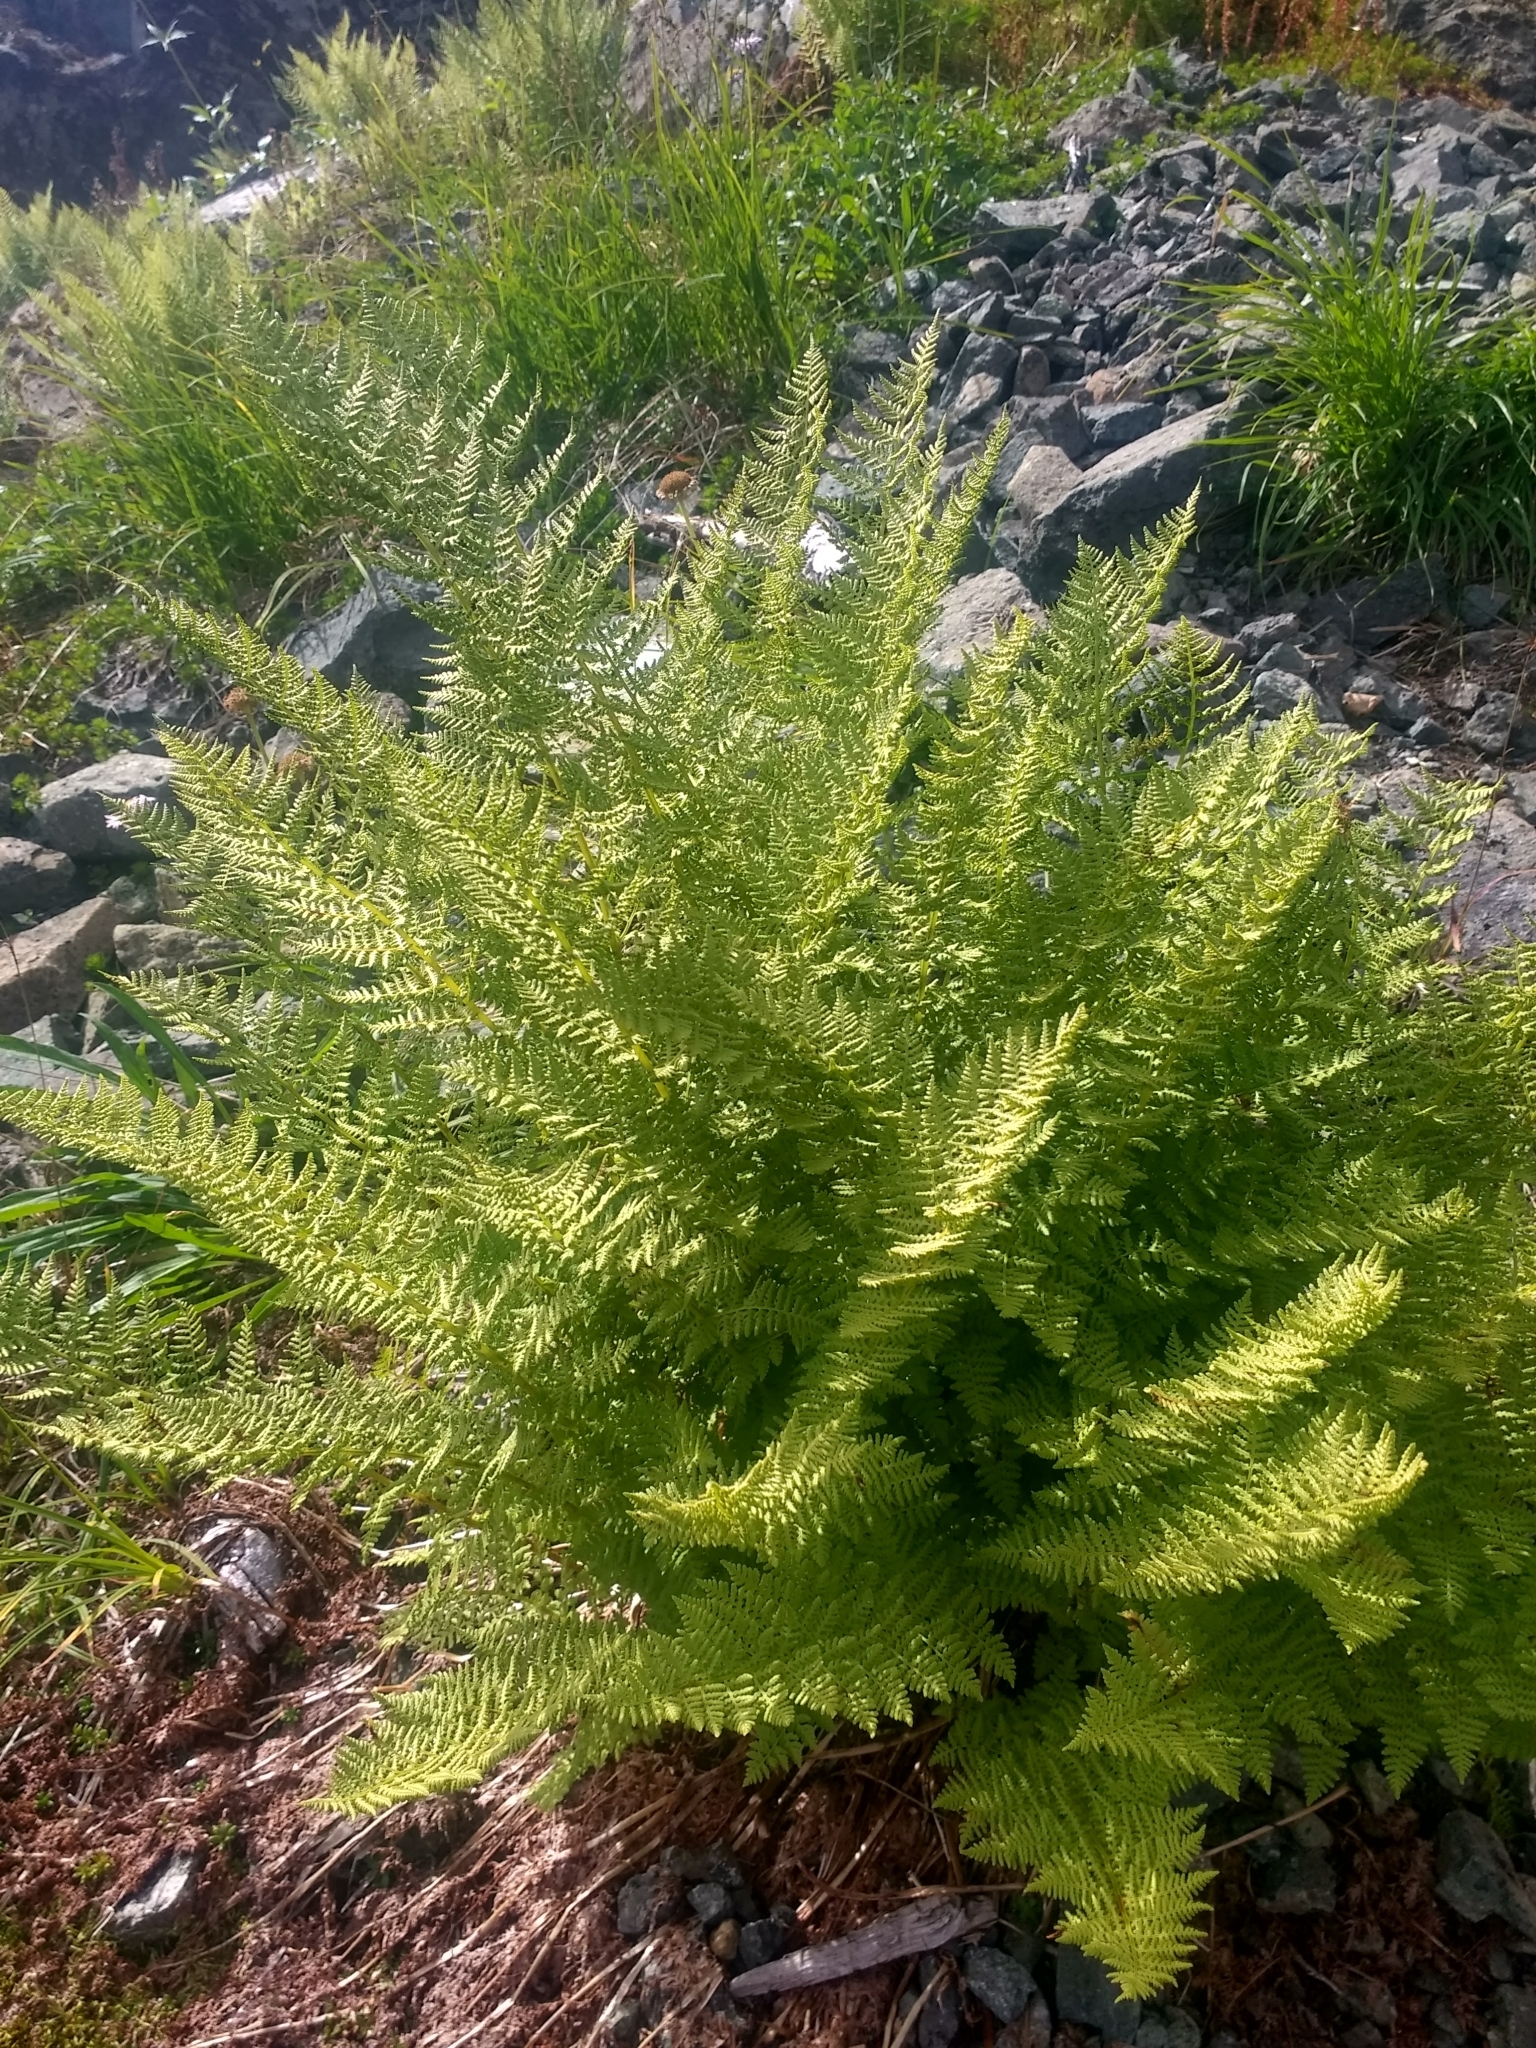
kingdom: Plantae
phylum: Tracheophyta
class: Polypodiopsida
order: Polypodiales
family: Athyriaceae
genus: Athyrium
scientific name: Athyrium americanum
